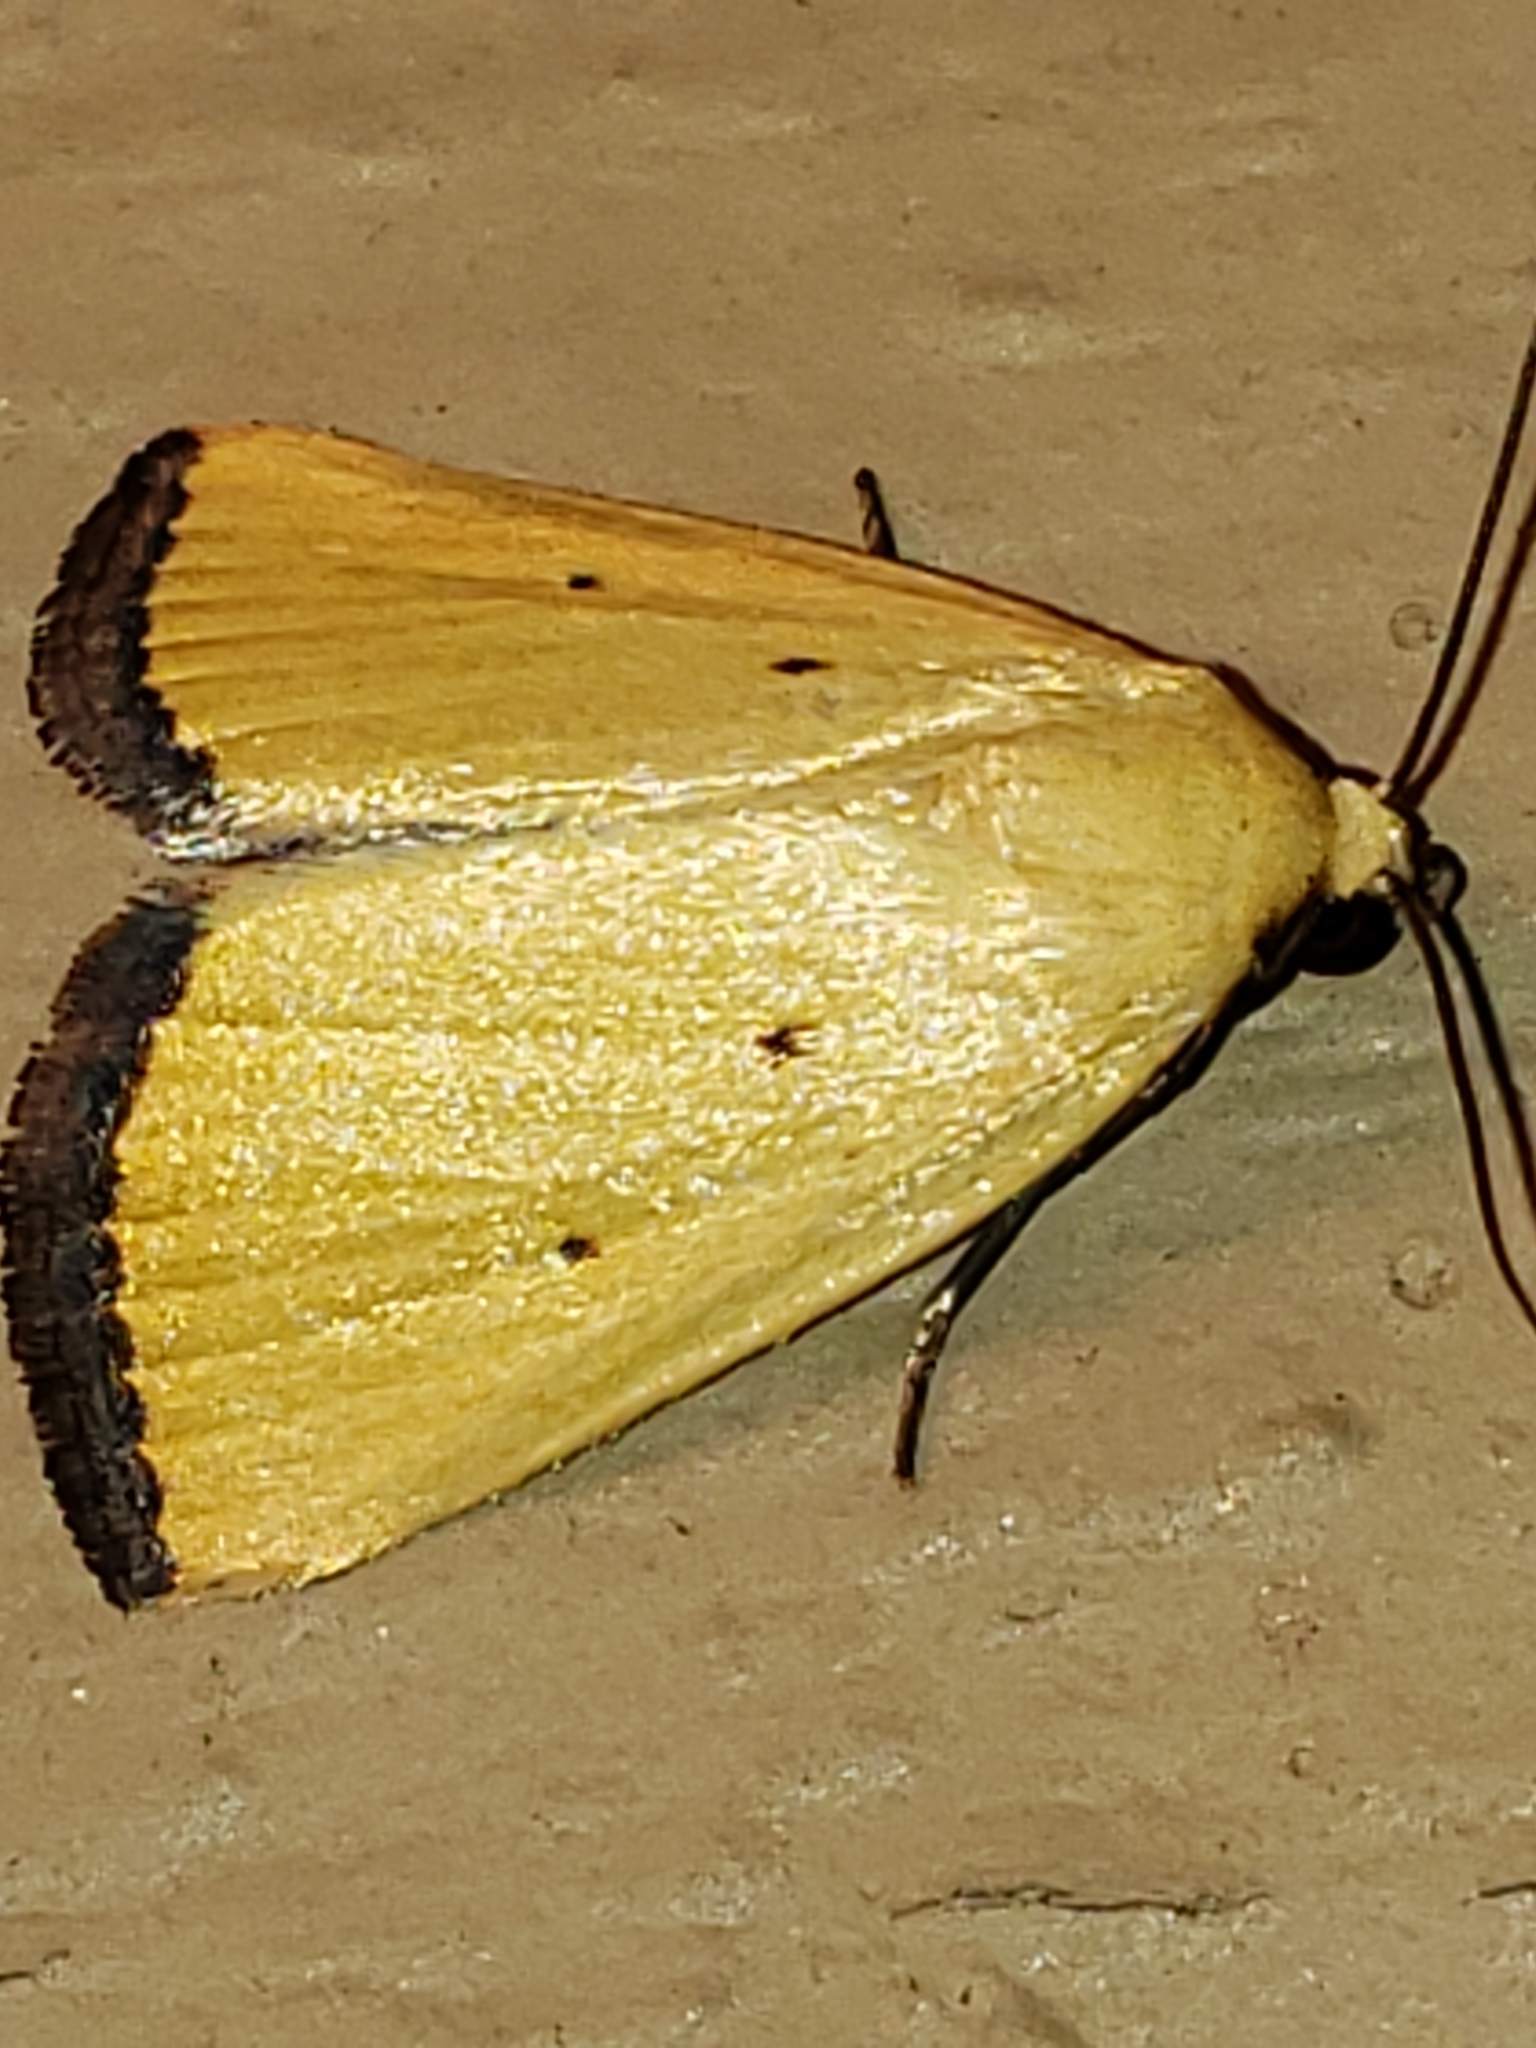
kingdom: Animalia
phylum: Arthropoda
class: Insecta
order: Lepidoptera
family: Noctuidae
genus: Marimatha
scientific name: Marimatha nigrofimbria
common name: Black-bordered lemon moth
